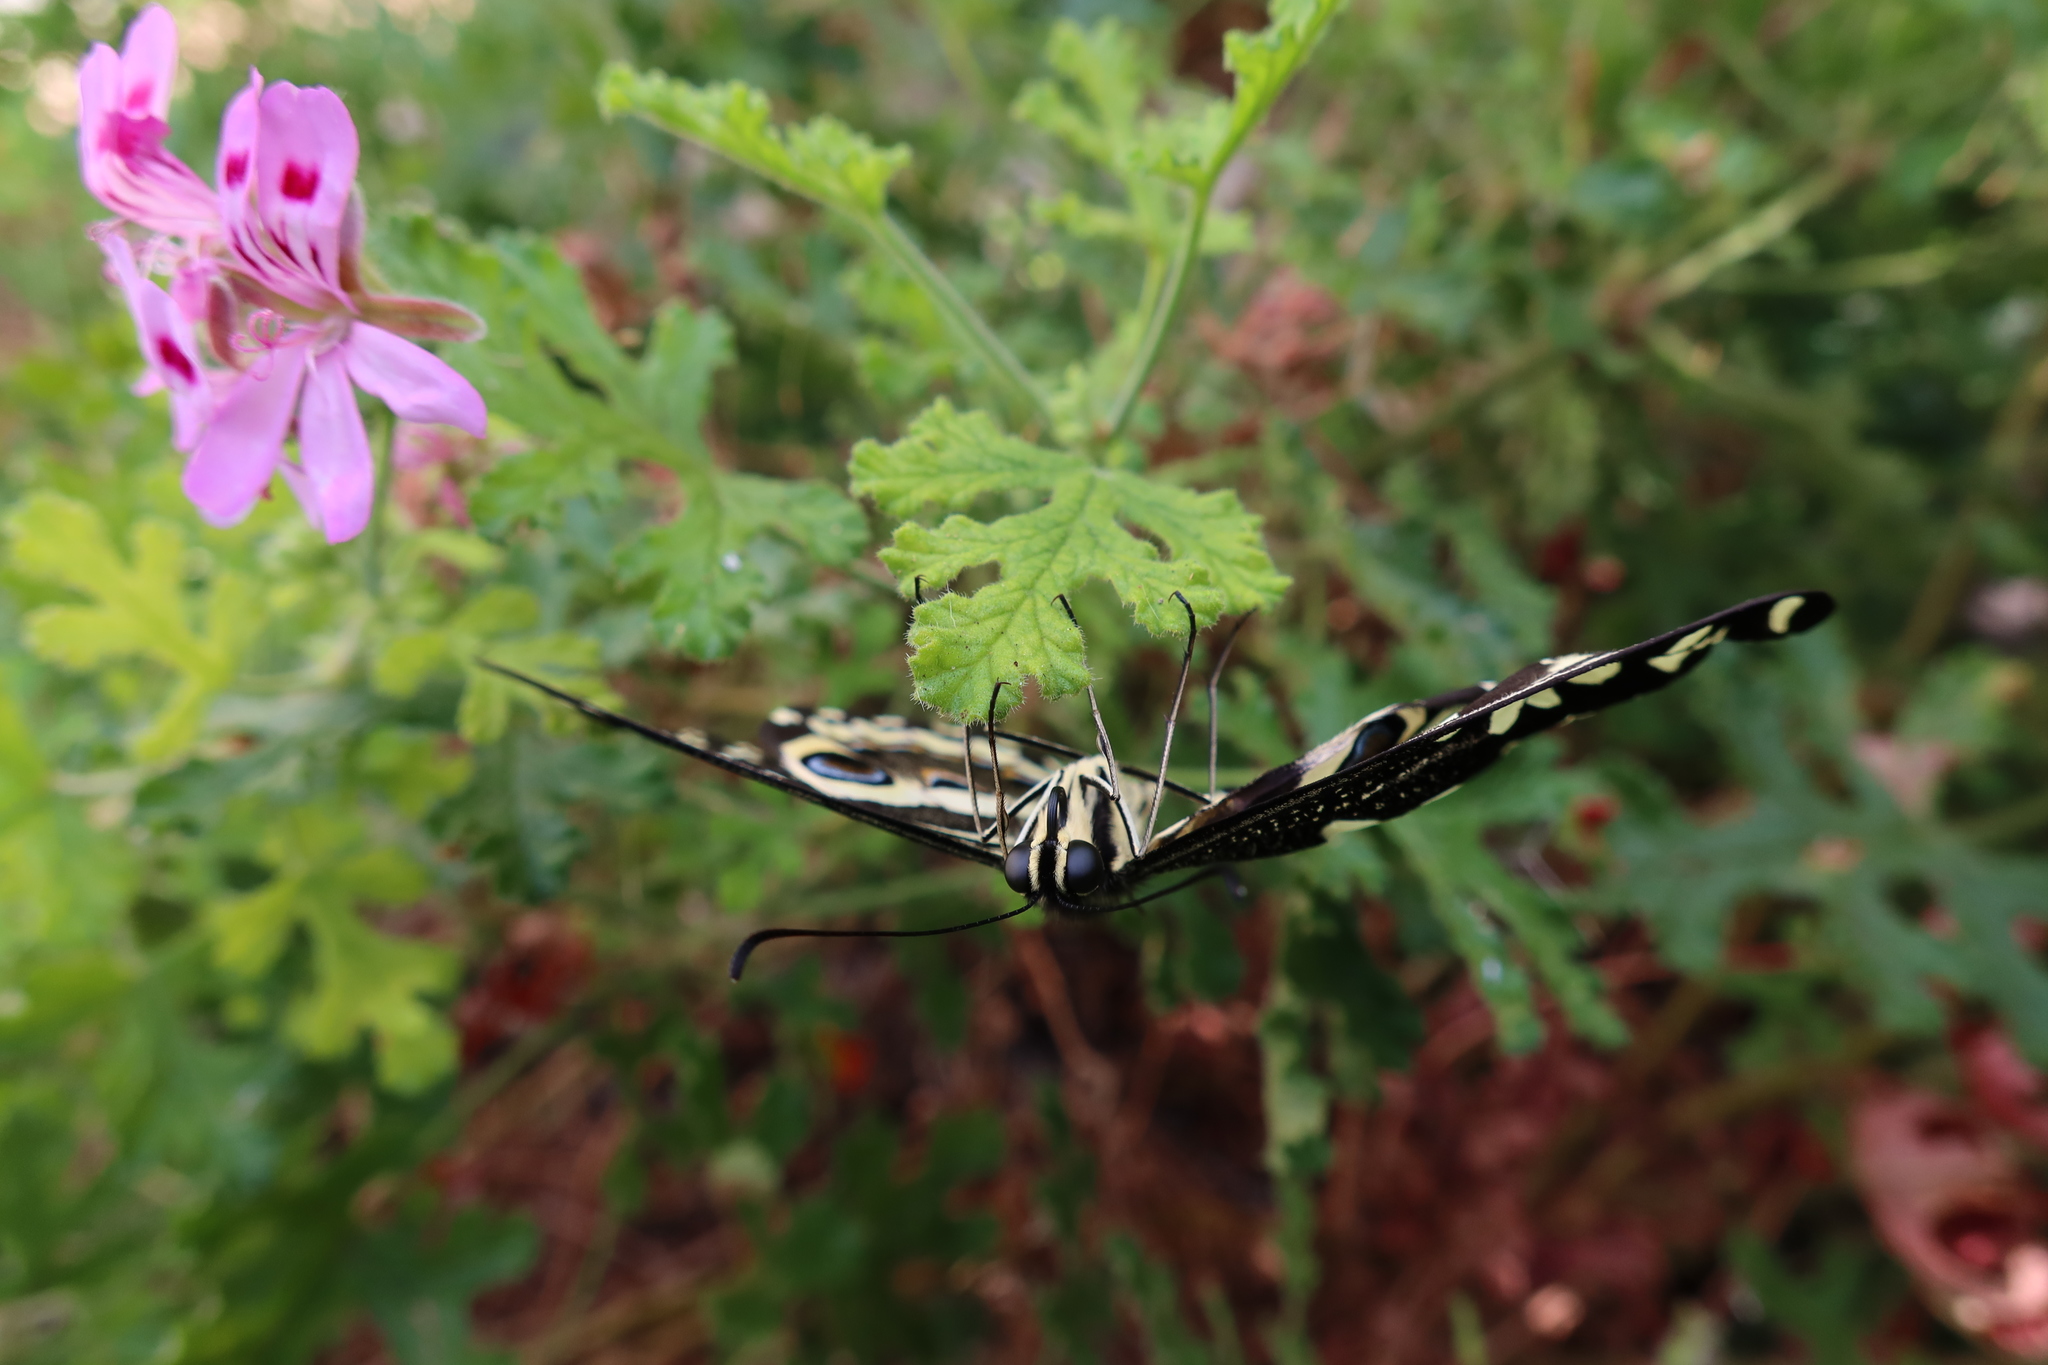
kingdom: Animalia
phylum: Arthropoda
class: Insecta
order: Lepidoptera
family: Papilionidae
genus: Papilio
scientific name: Papilio demodocus
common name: Christmas butterfly
